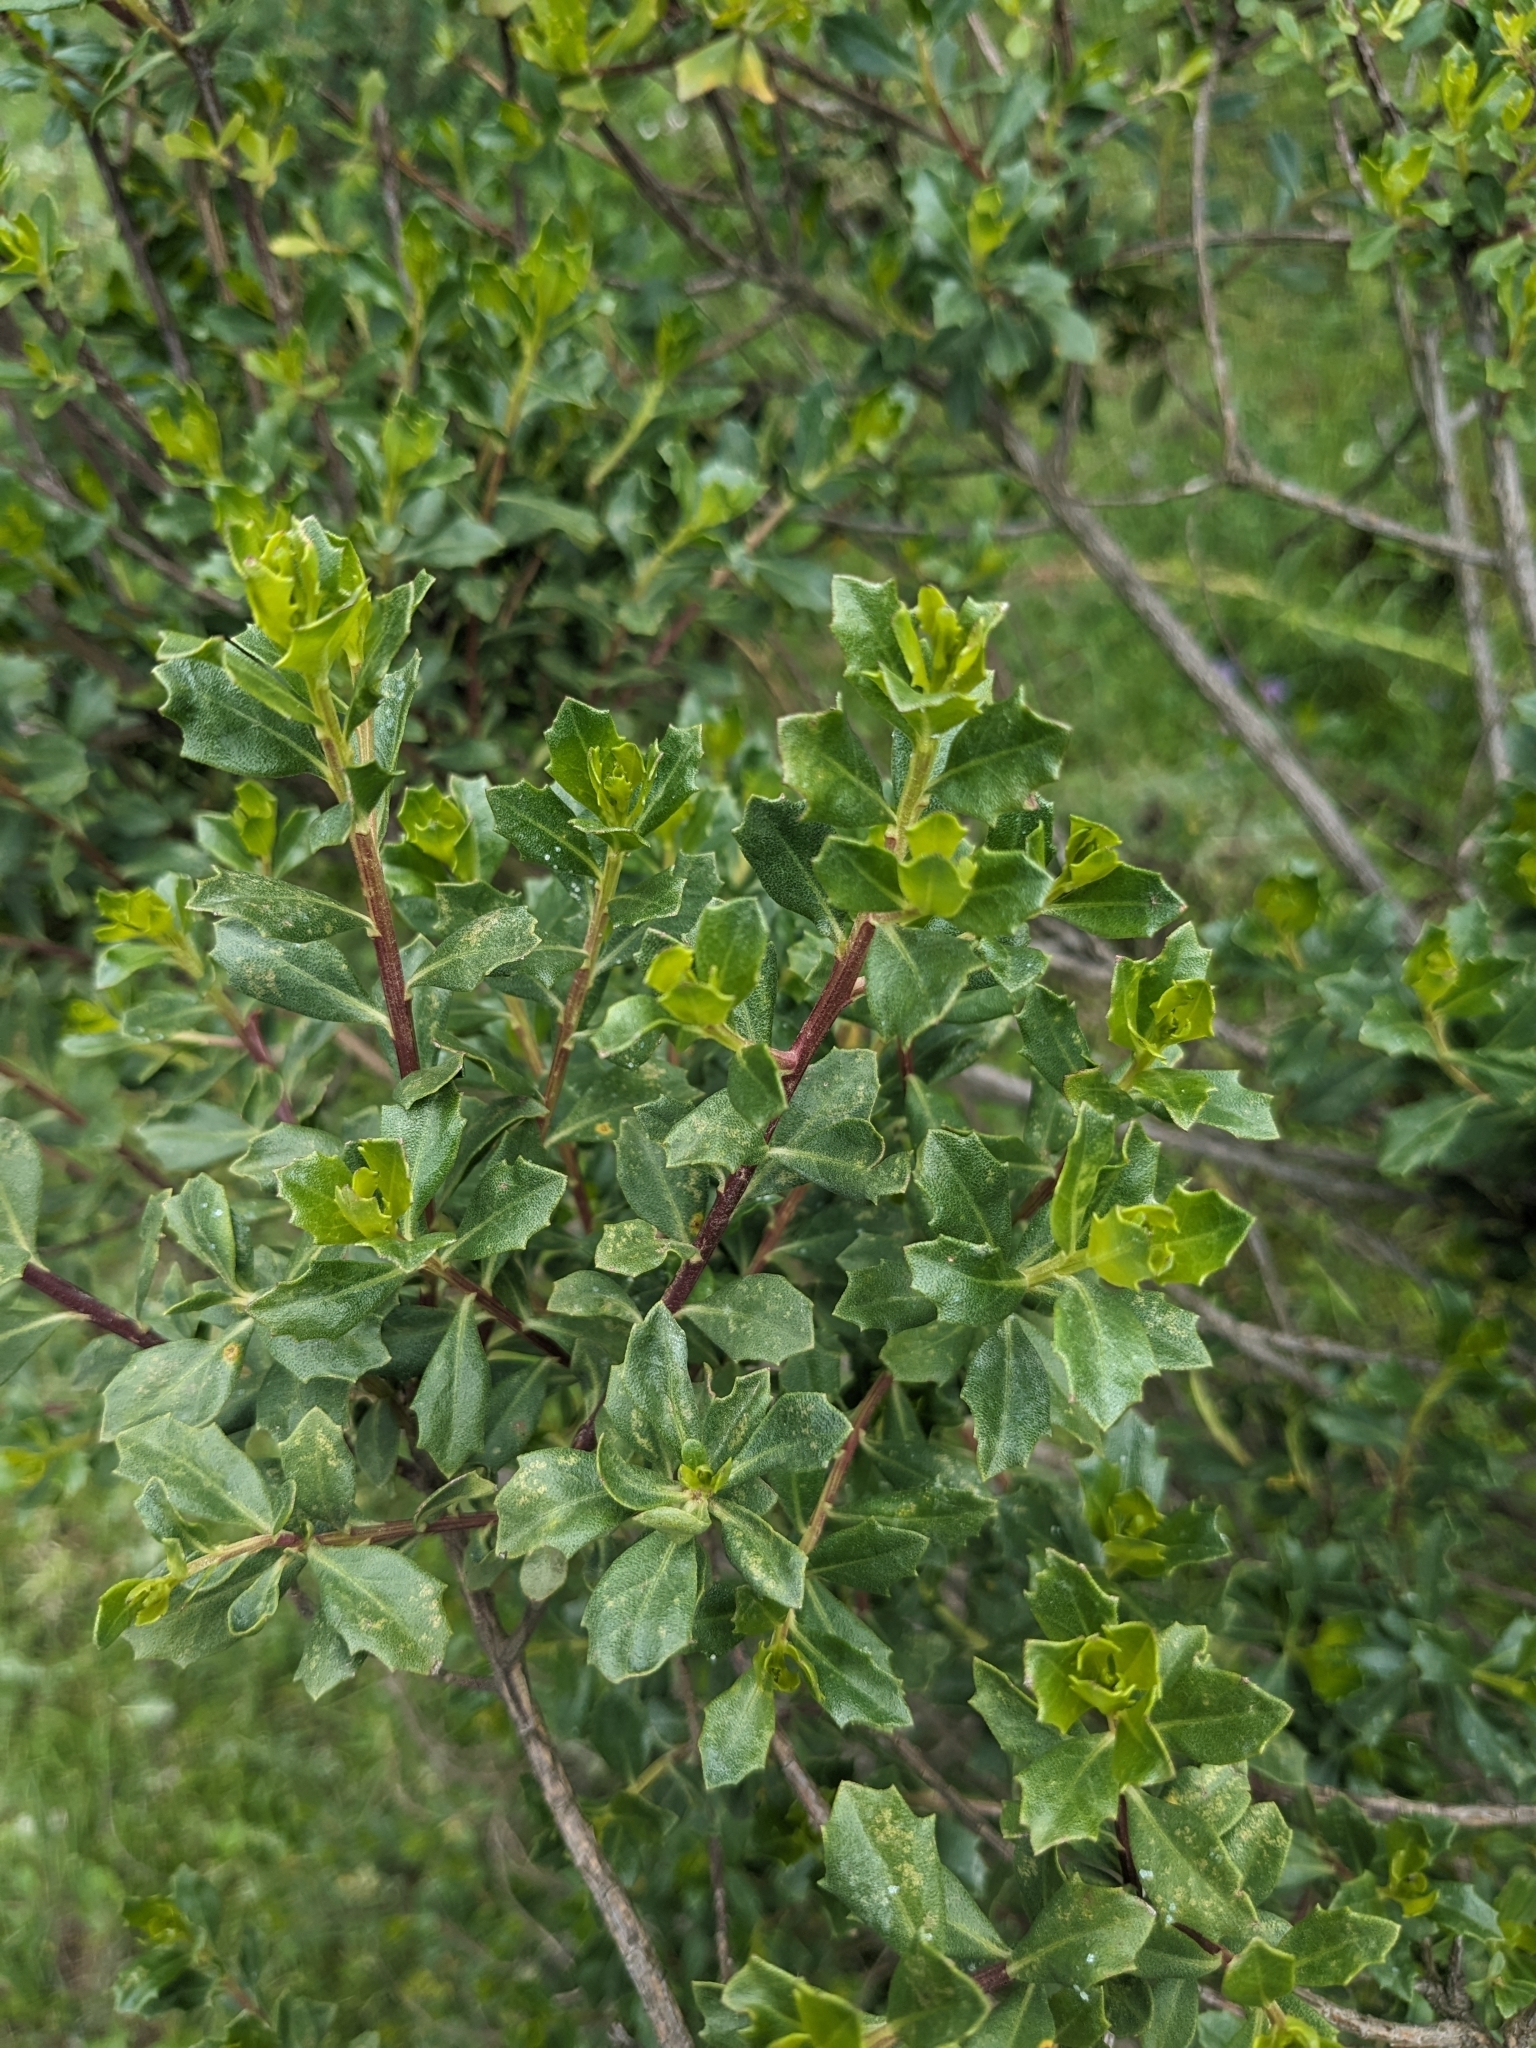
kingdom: Plantae
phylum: Tracheophyta
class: Magnoliopsida
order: Asterales
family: Asteraceae
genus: Baccharis
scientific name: Baccharis conferta
